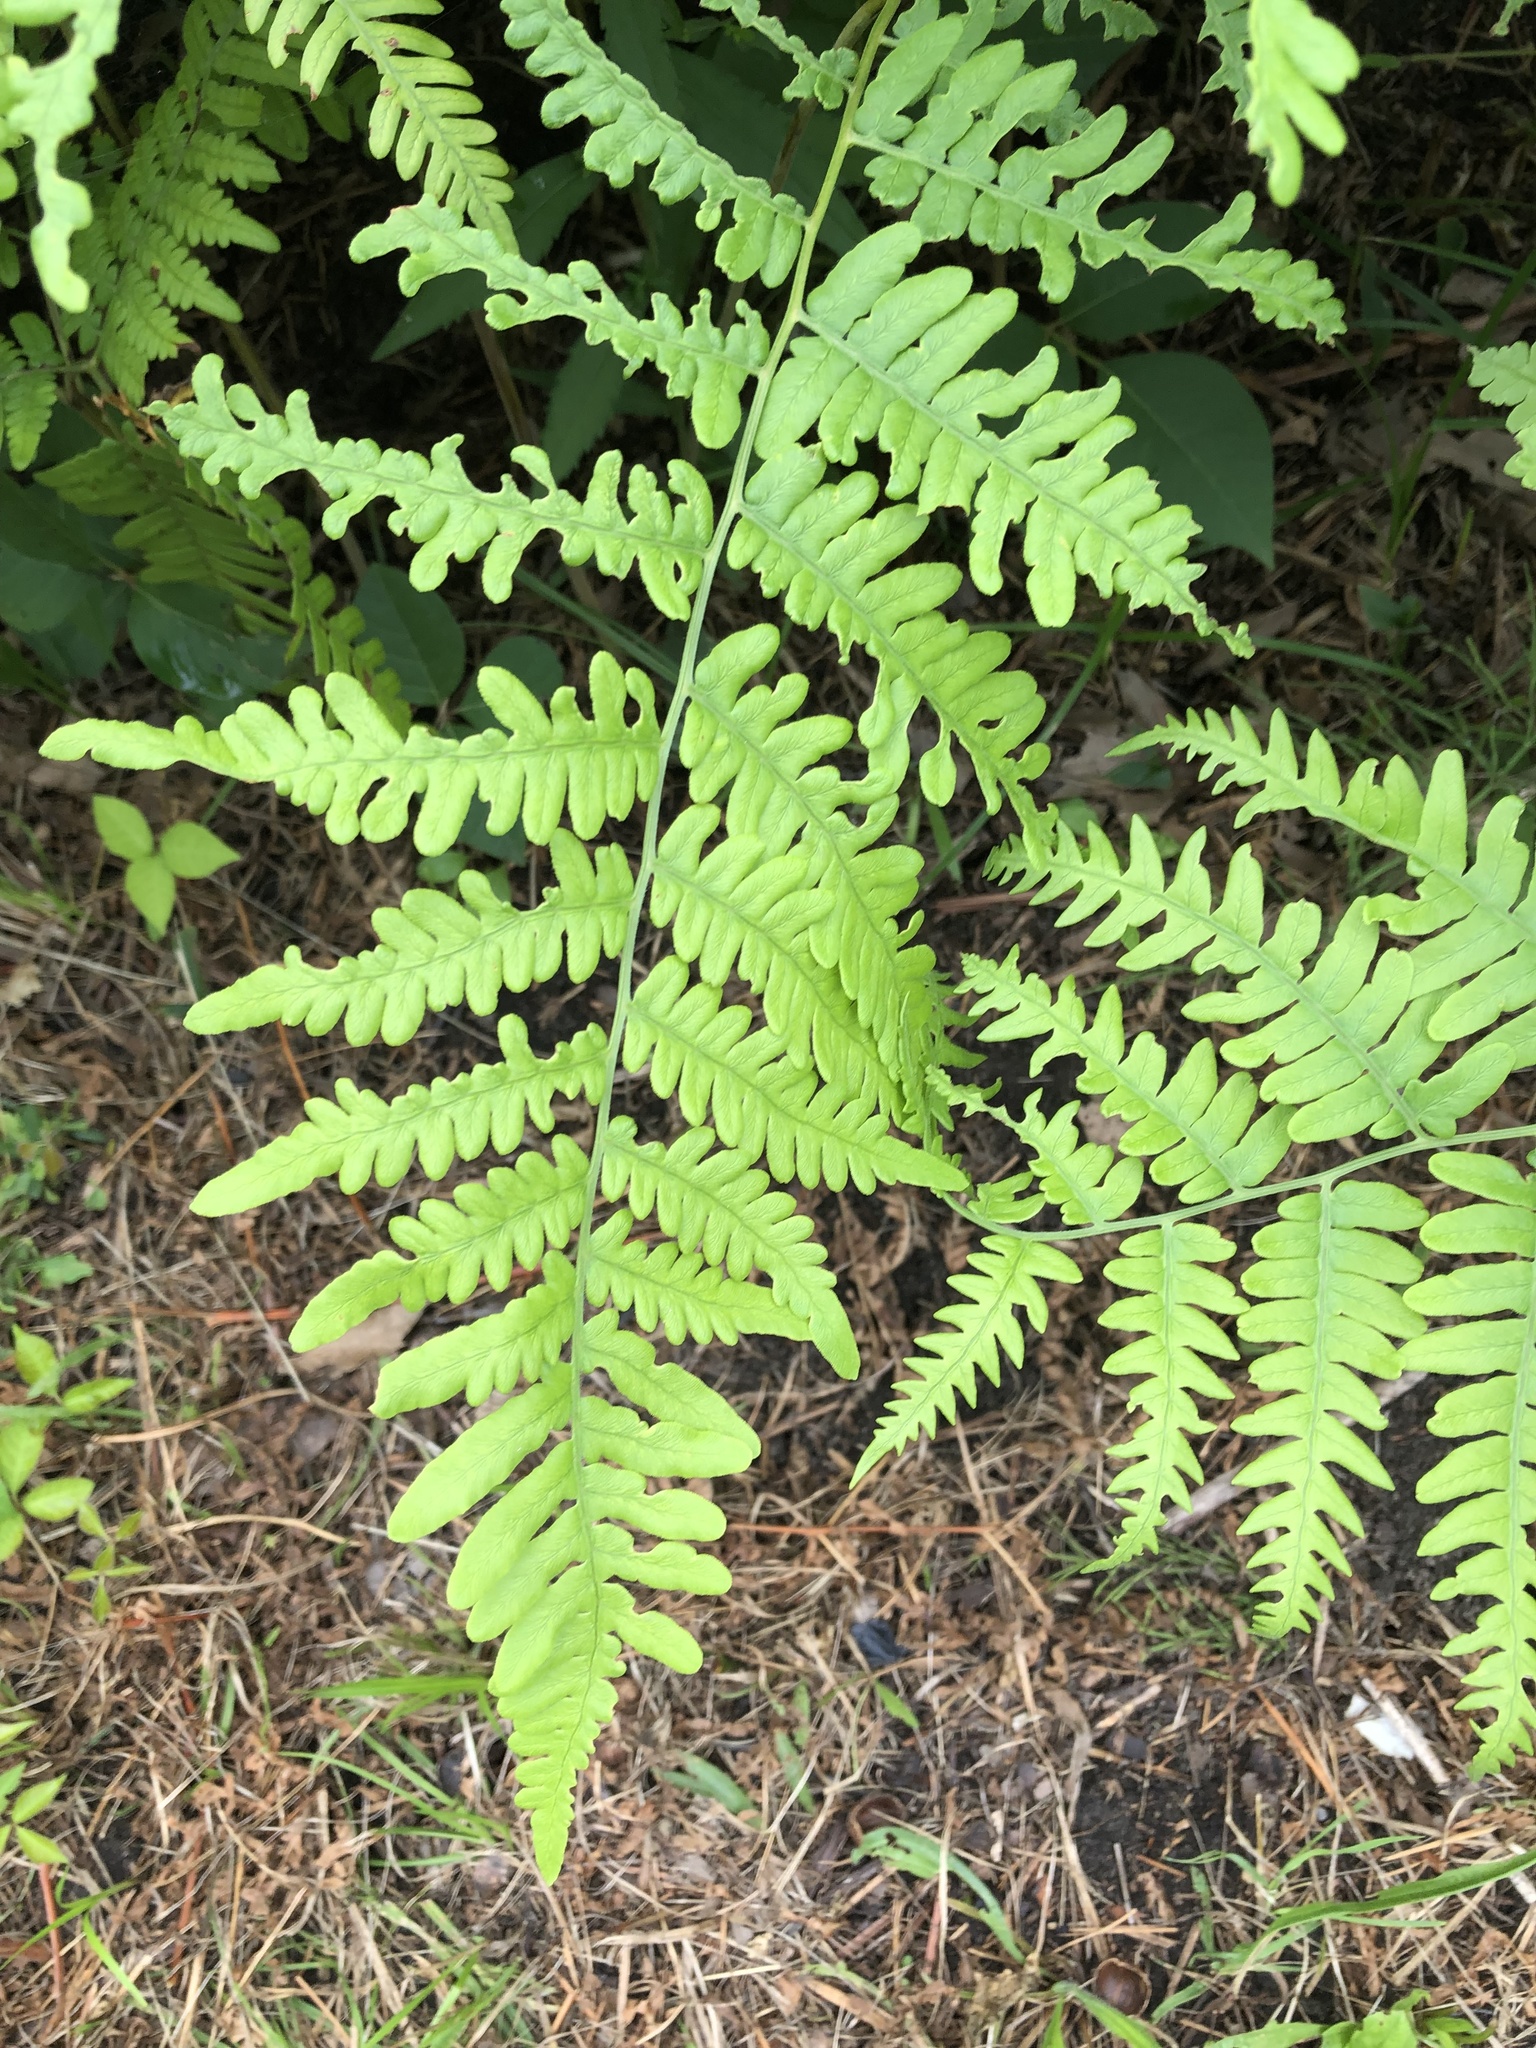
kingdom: Plantae
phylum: Tracheophyta
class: Polypodiopsida
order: Polypodiales
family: Dennstaedtiaceae
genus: Pteridium
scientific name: Pteridium aquilinum
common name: Bracken
